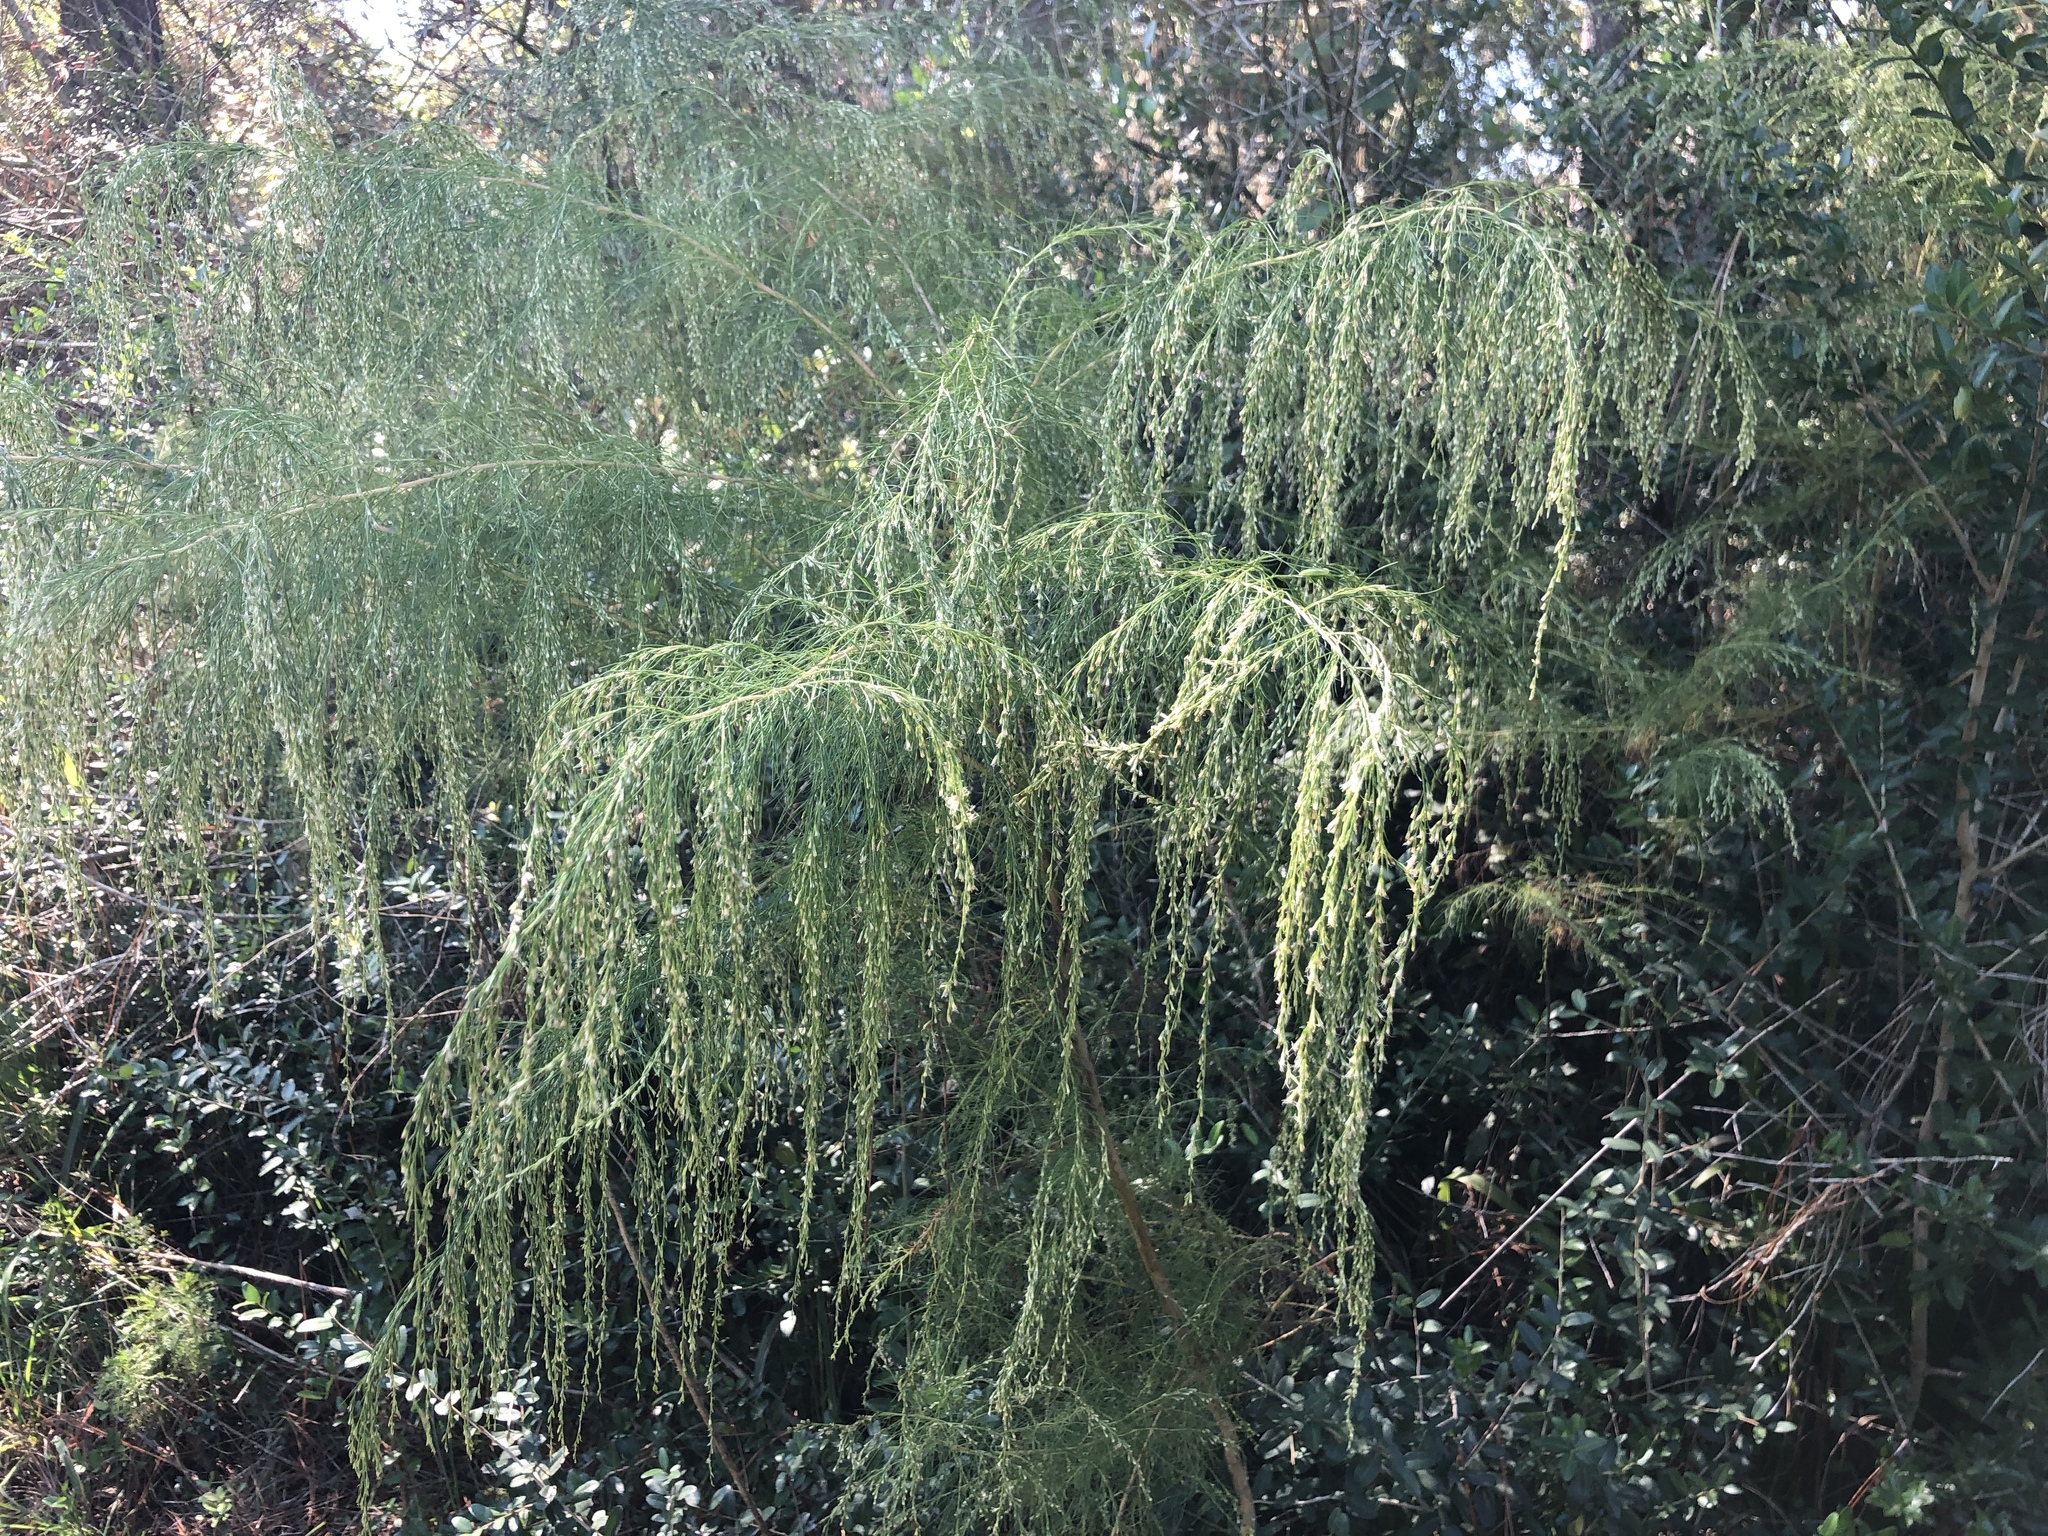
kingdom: Plantae
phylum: Tracheophyta
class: Magnoliopsida
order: Asterales
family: Asteraceae
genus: Eupatorium
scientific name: Eupatorium capillifolium
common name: Dog-fennel
